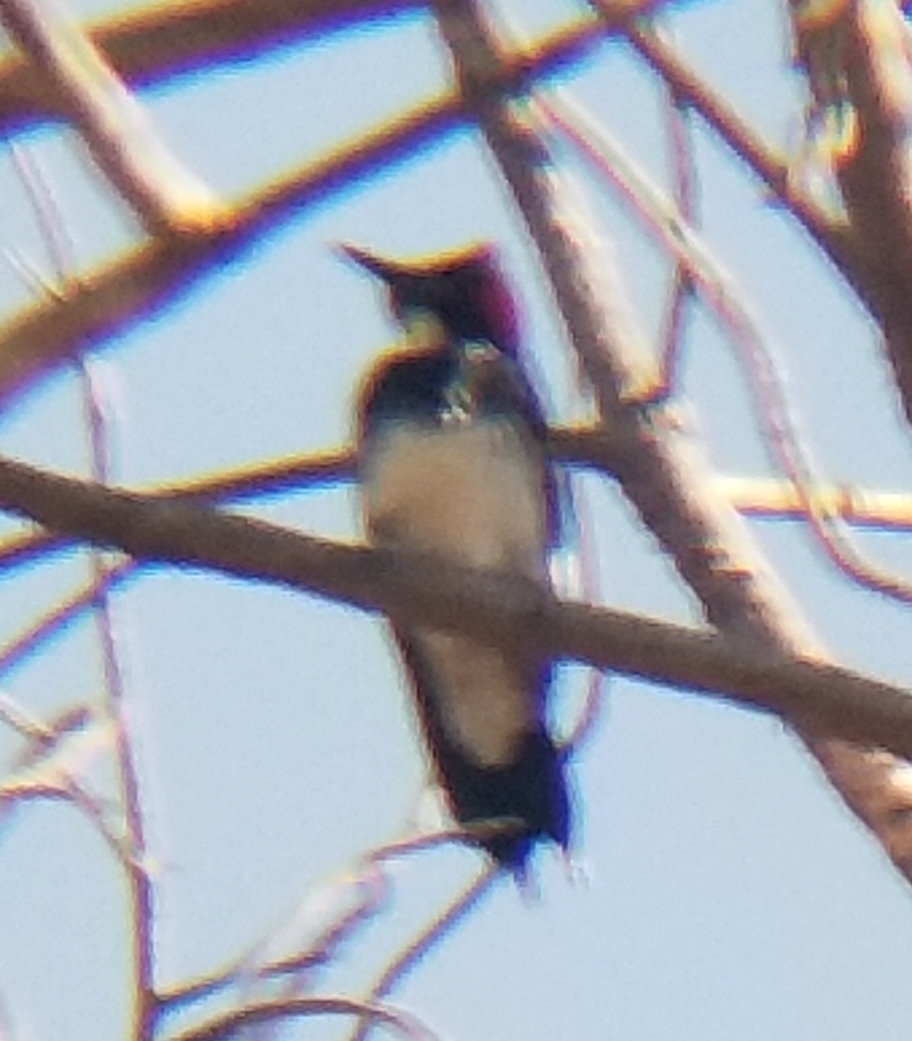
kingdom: Animalia
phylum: Chordata
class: Aves
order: Piciformes
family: Picidae
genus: Melanerpes
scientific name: Melanerpes formicivorus
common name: Acorn woodpecker
